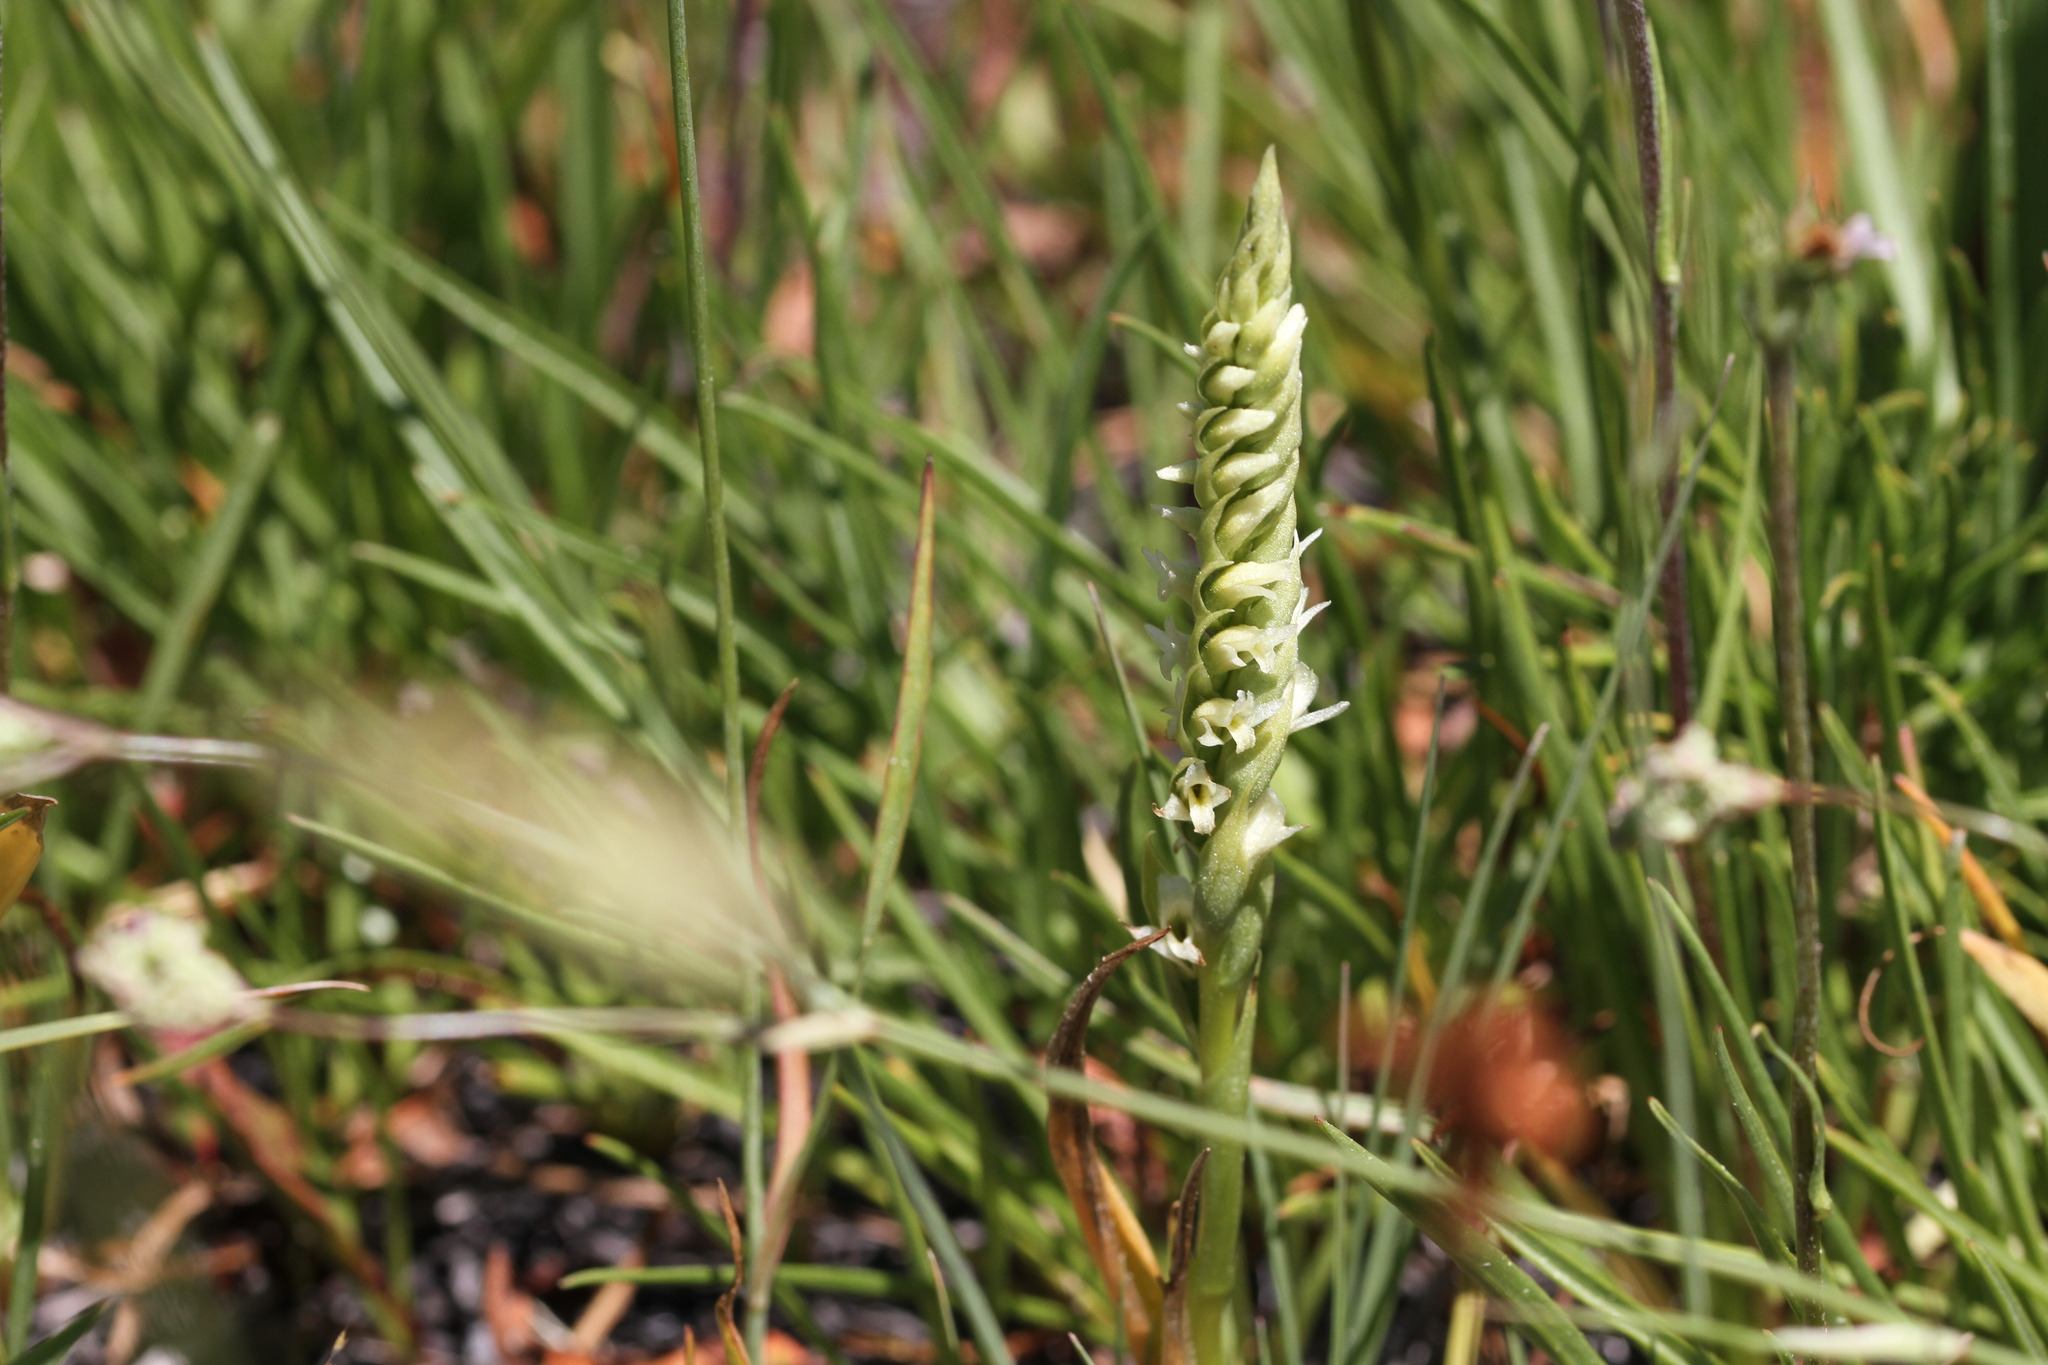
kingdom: Plantae
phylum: Tracheophyta
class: Liliopsida
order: Asparagales
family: Orchidaceae
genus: Spiranthes
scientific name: Spiranthes stellata
